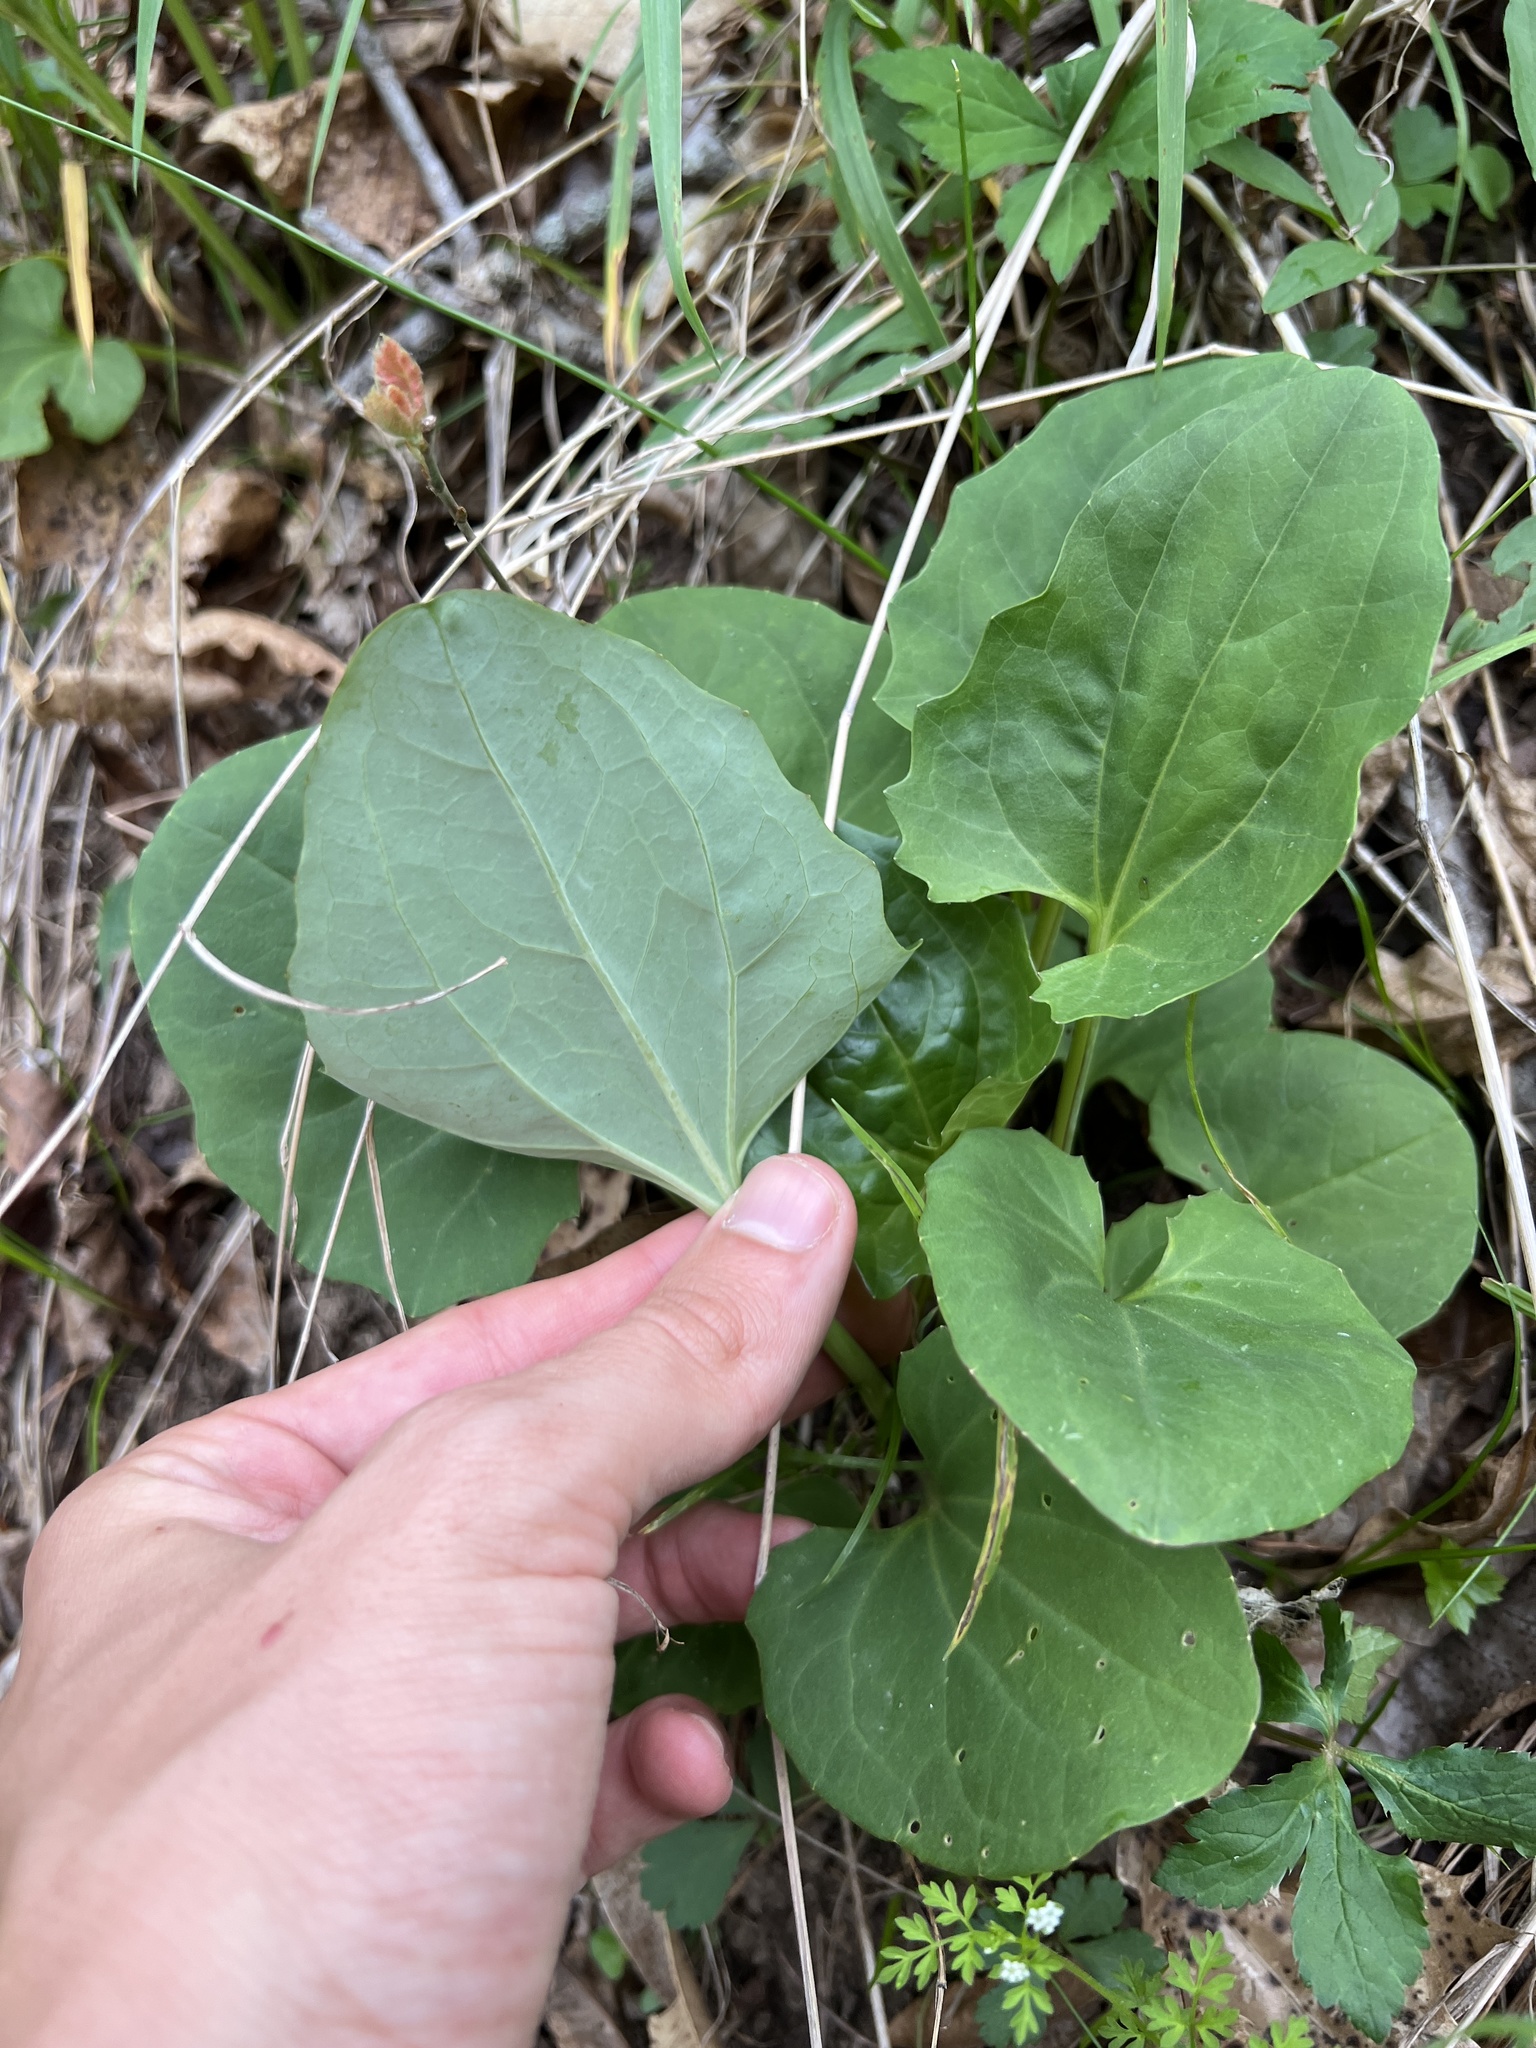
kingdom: Plantae
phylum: Tracheophyta
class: Magnoliopsida
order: Asterales
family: Asteraceae
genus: Arnoglossum
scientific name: Arnoglossum atriplicifolium
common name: Pale indian-plantain
